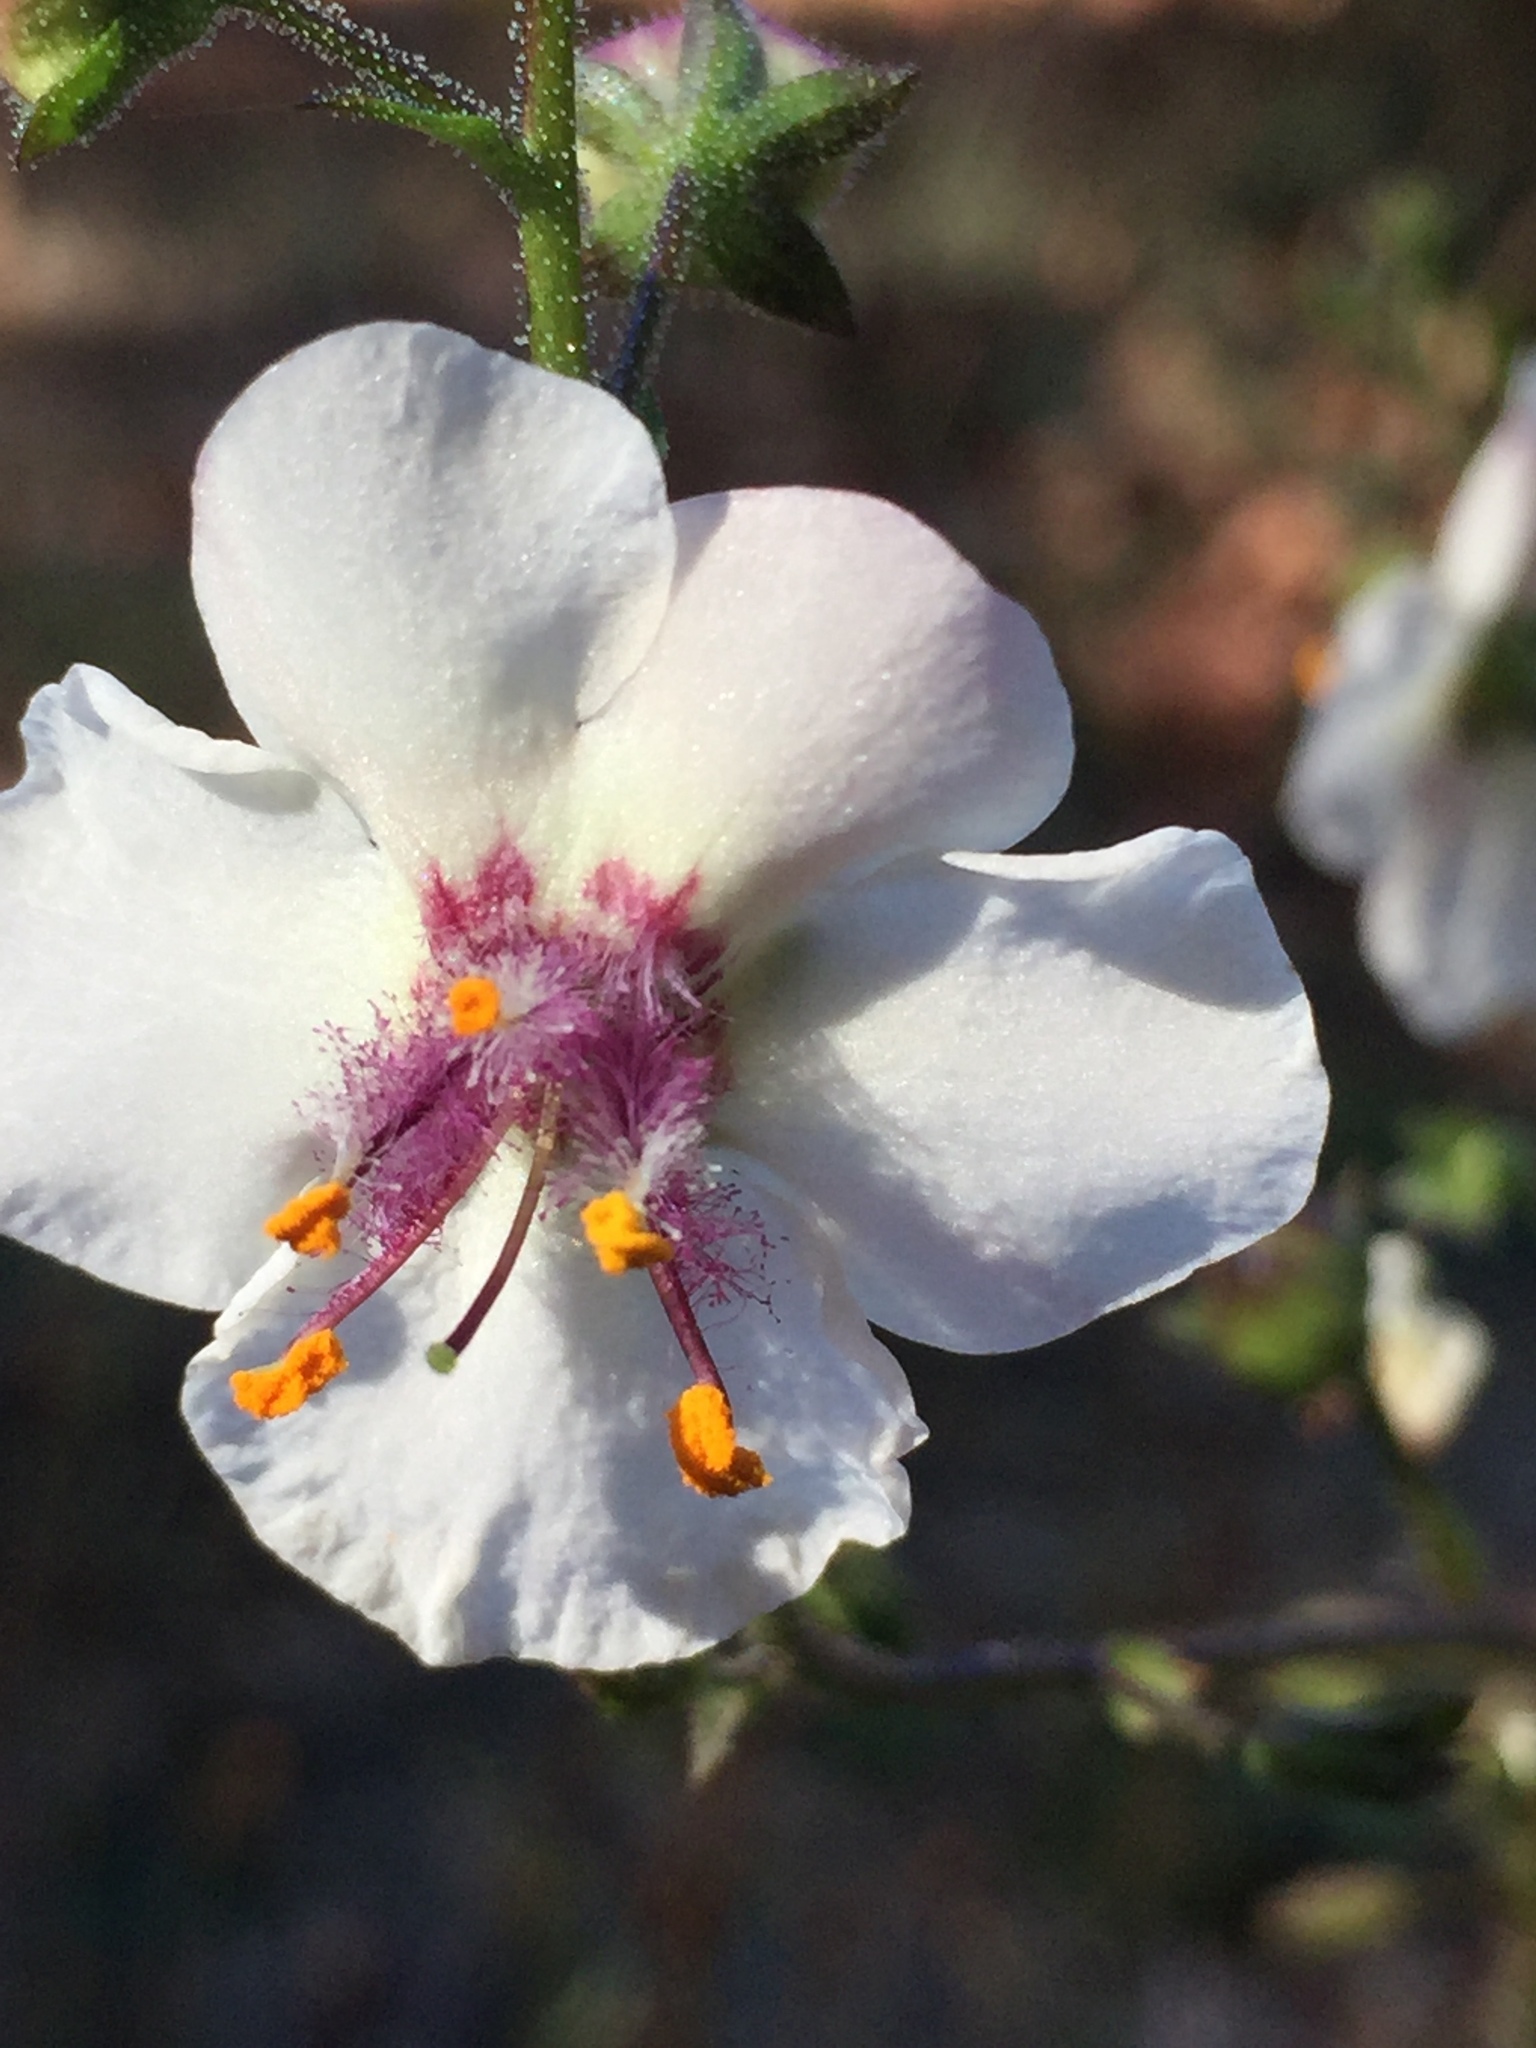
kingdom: Plantae
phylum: Tracheophyta
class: Magnoliopsida
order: Lamiales
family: Scrophulariaceae
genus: Verbascum
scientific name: Verbascum blattaria
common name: Moth mullein
